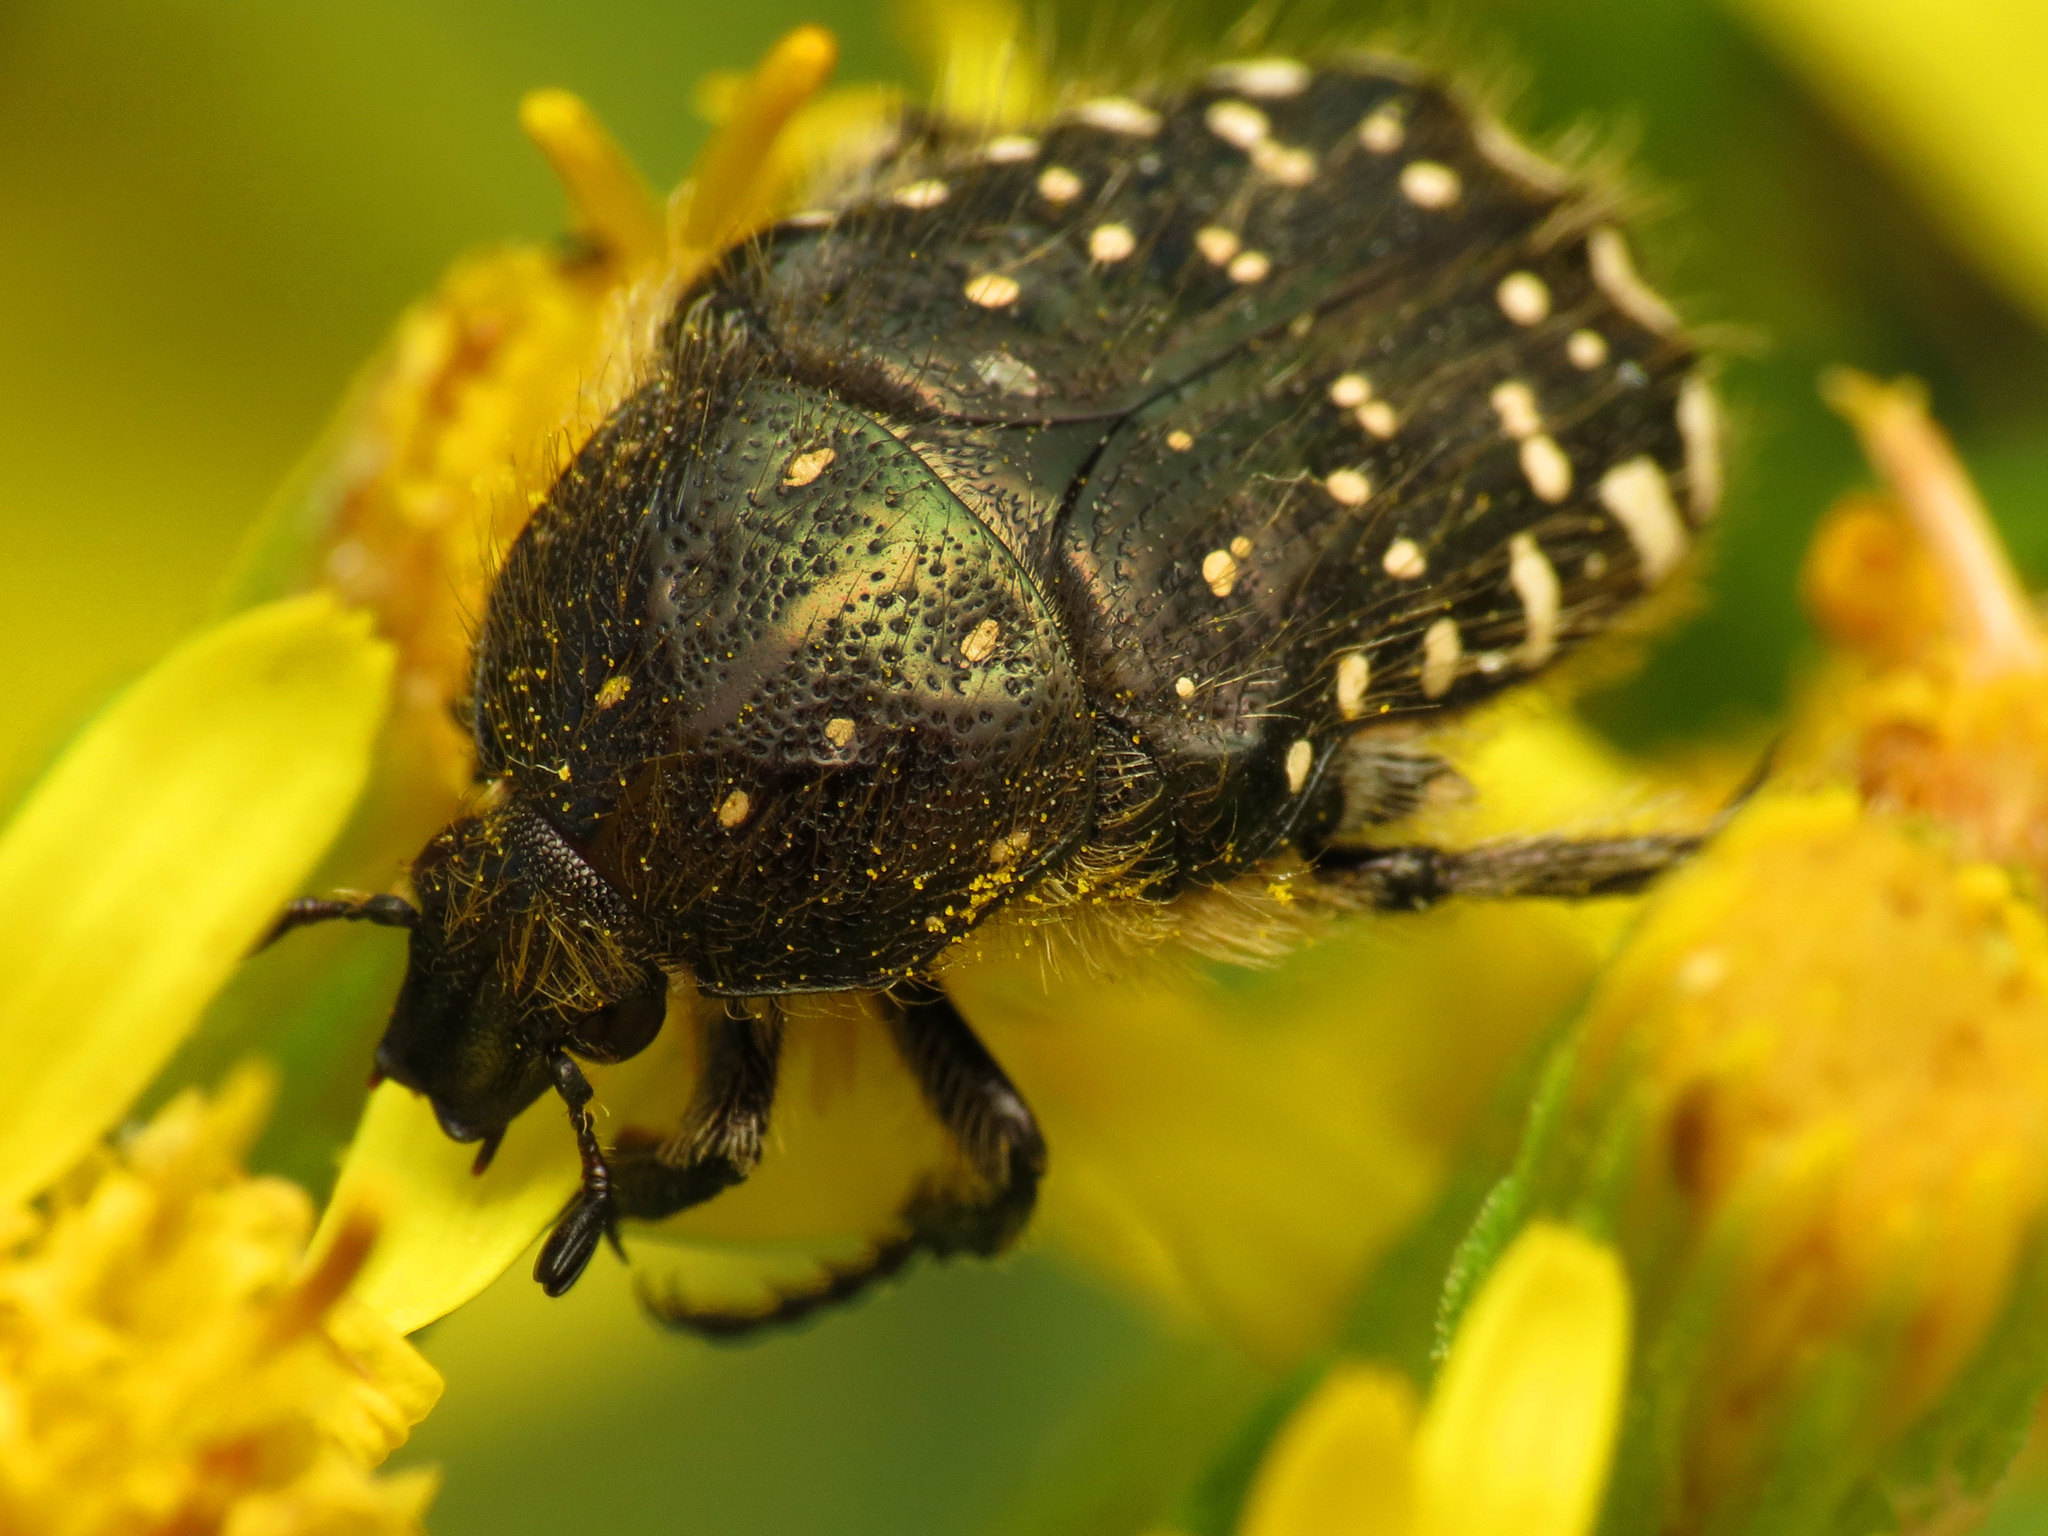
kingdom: Animalia
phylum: Arthropoda
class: Insecta
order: Coleoptera
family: Scarabaeidae
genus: Oxythyrea
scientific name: Oxythyrea funesta
